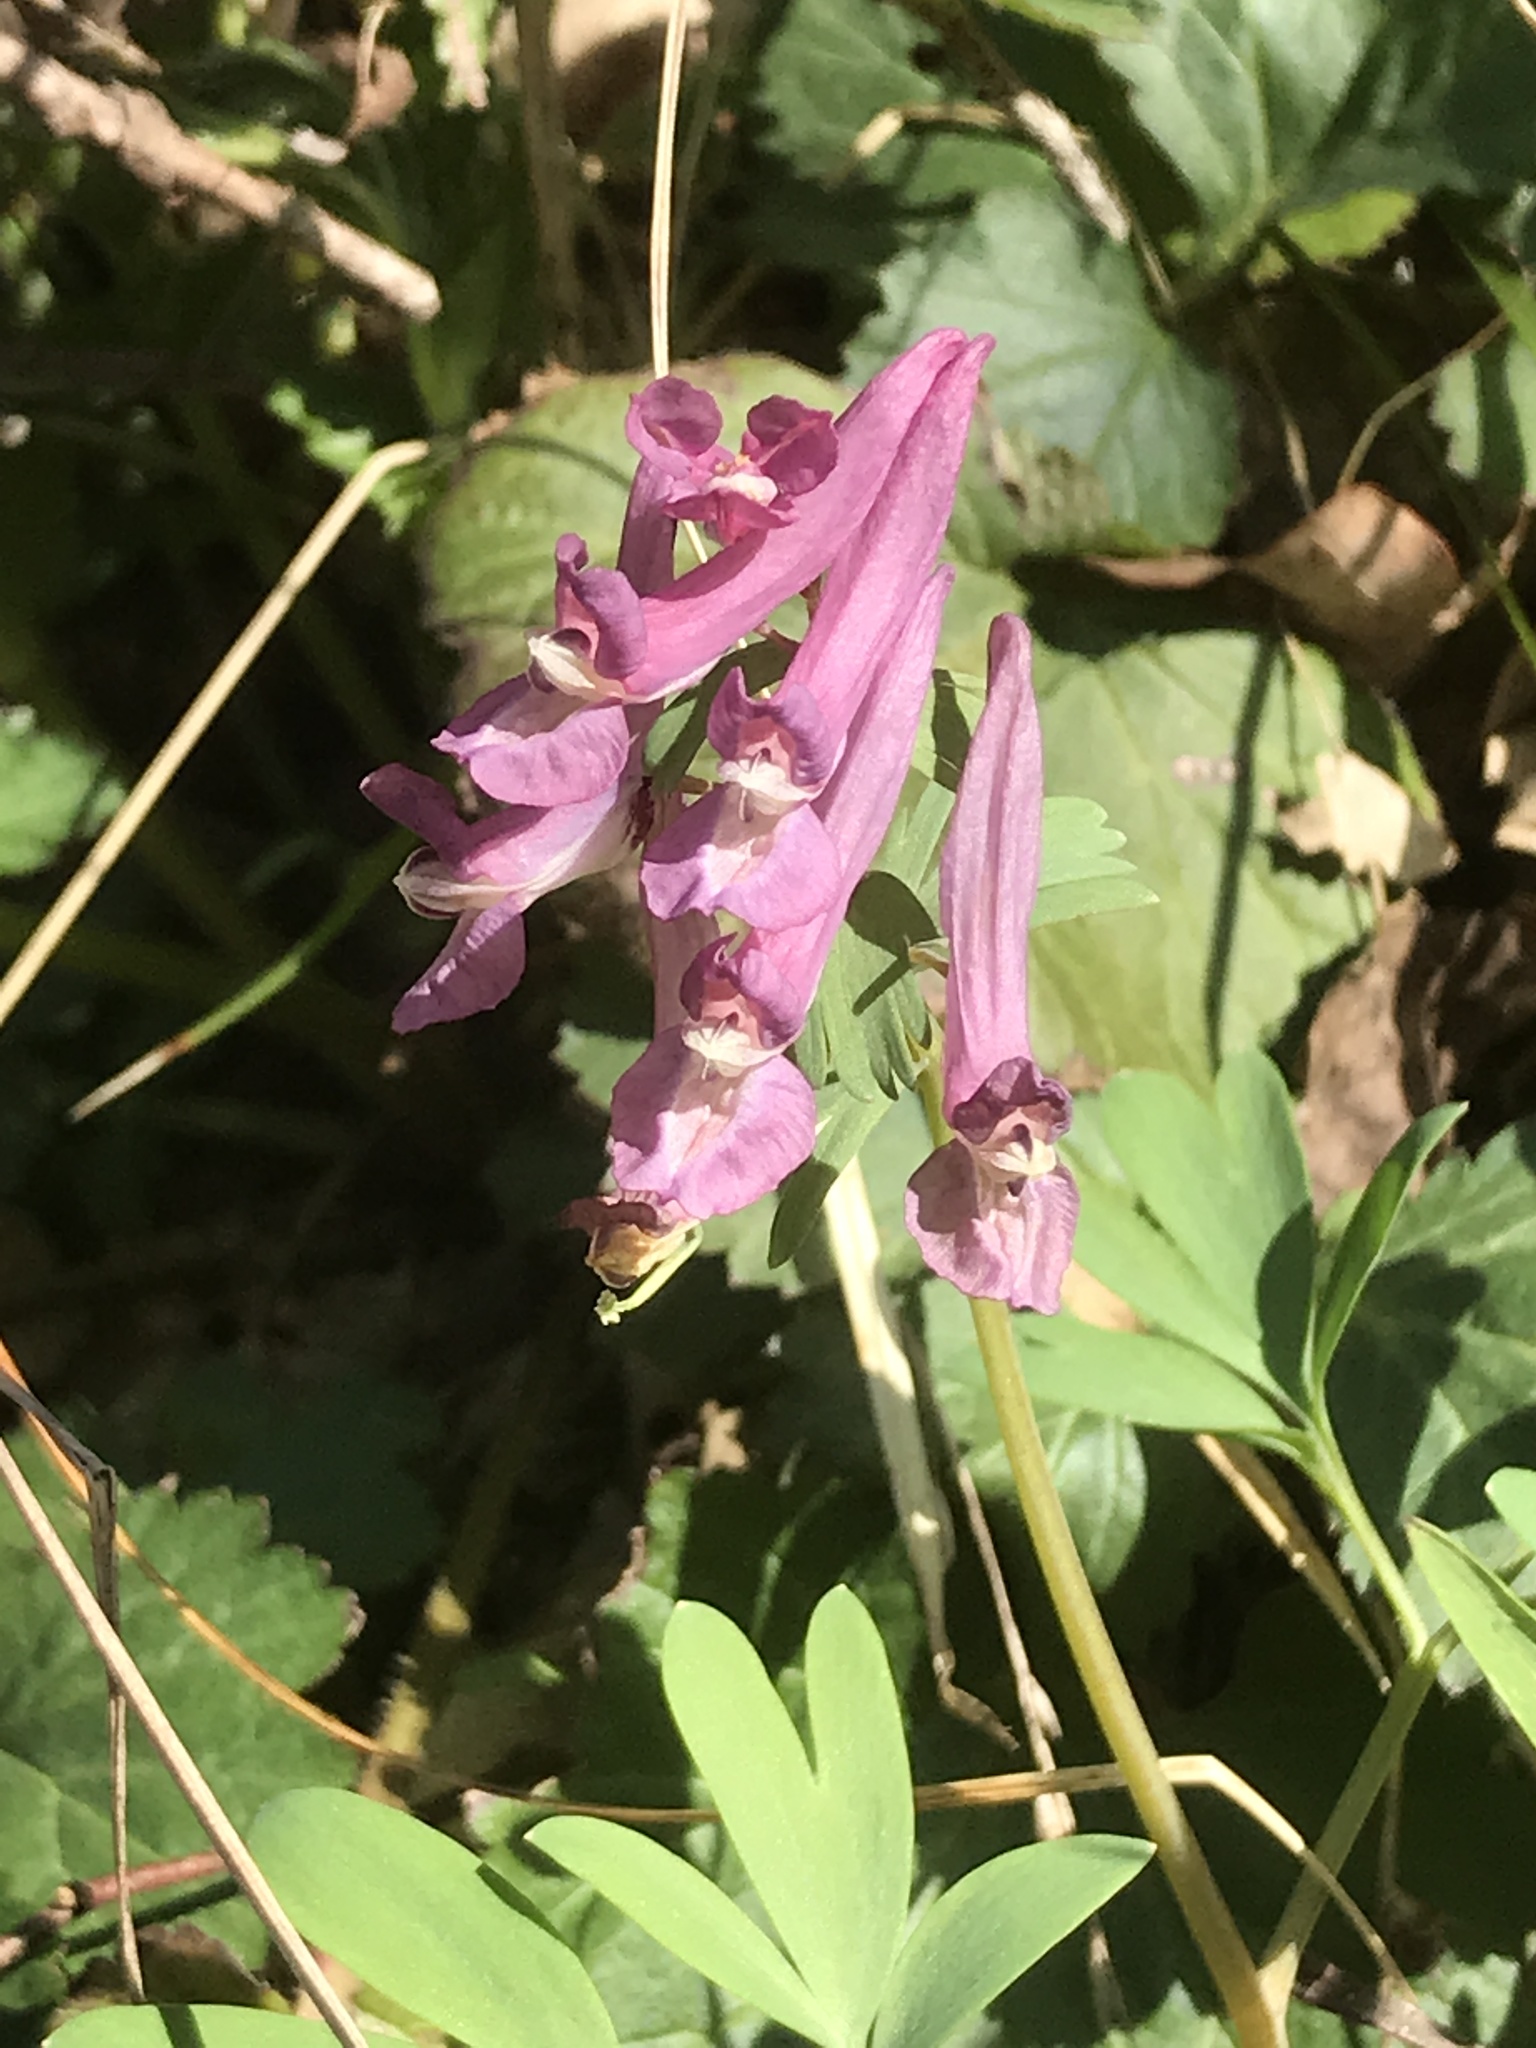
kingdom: Plantae
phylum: Tracheophyta
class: Magnoliopsida
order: Ranunculales
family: Papaveraceae
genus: Corydalis
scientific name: Corydalis solida
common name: Bird-in-a-bush
